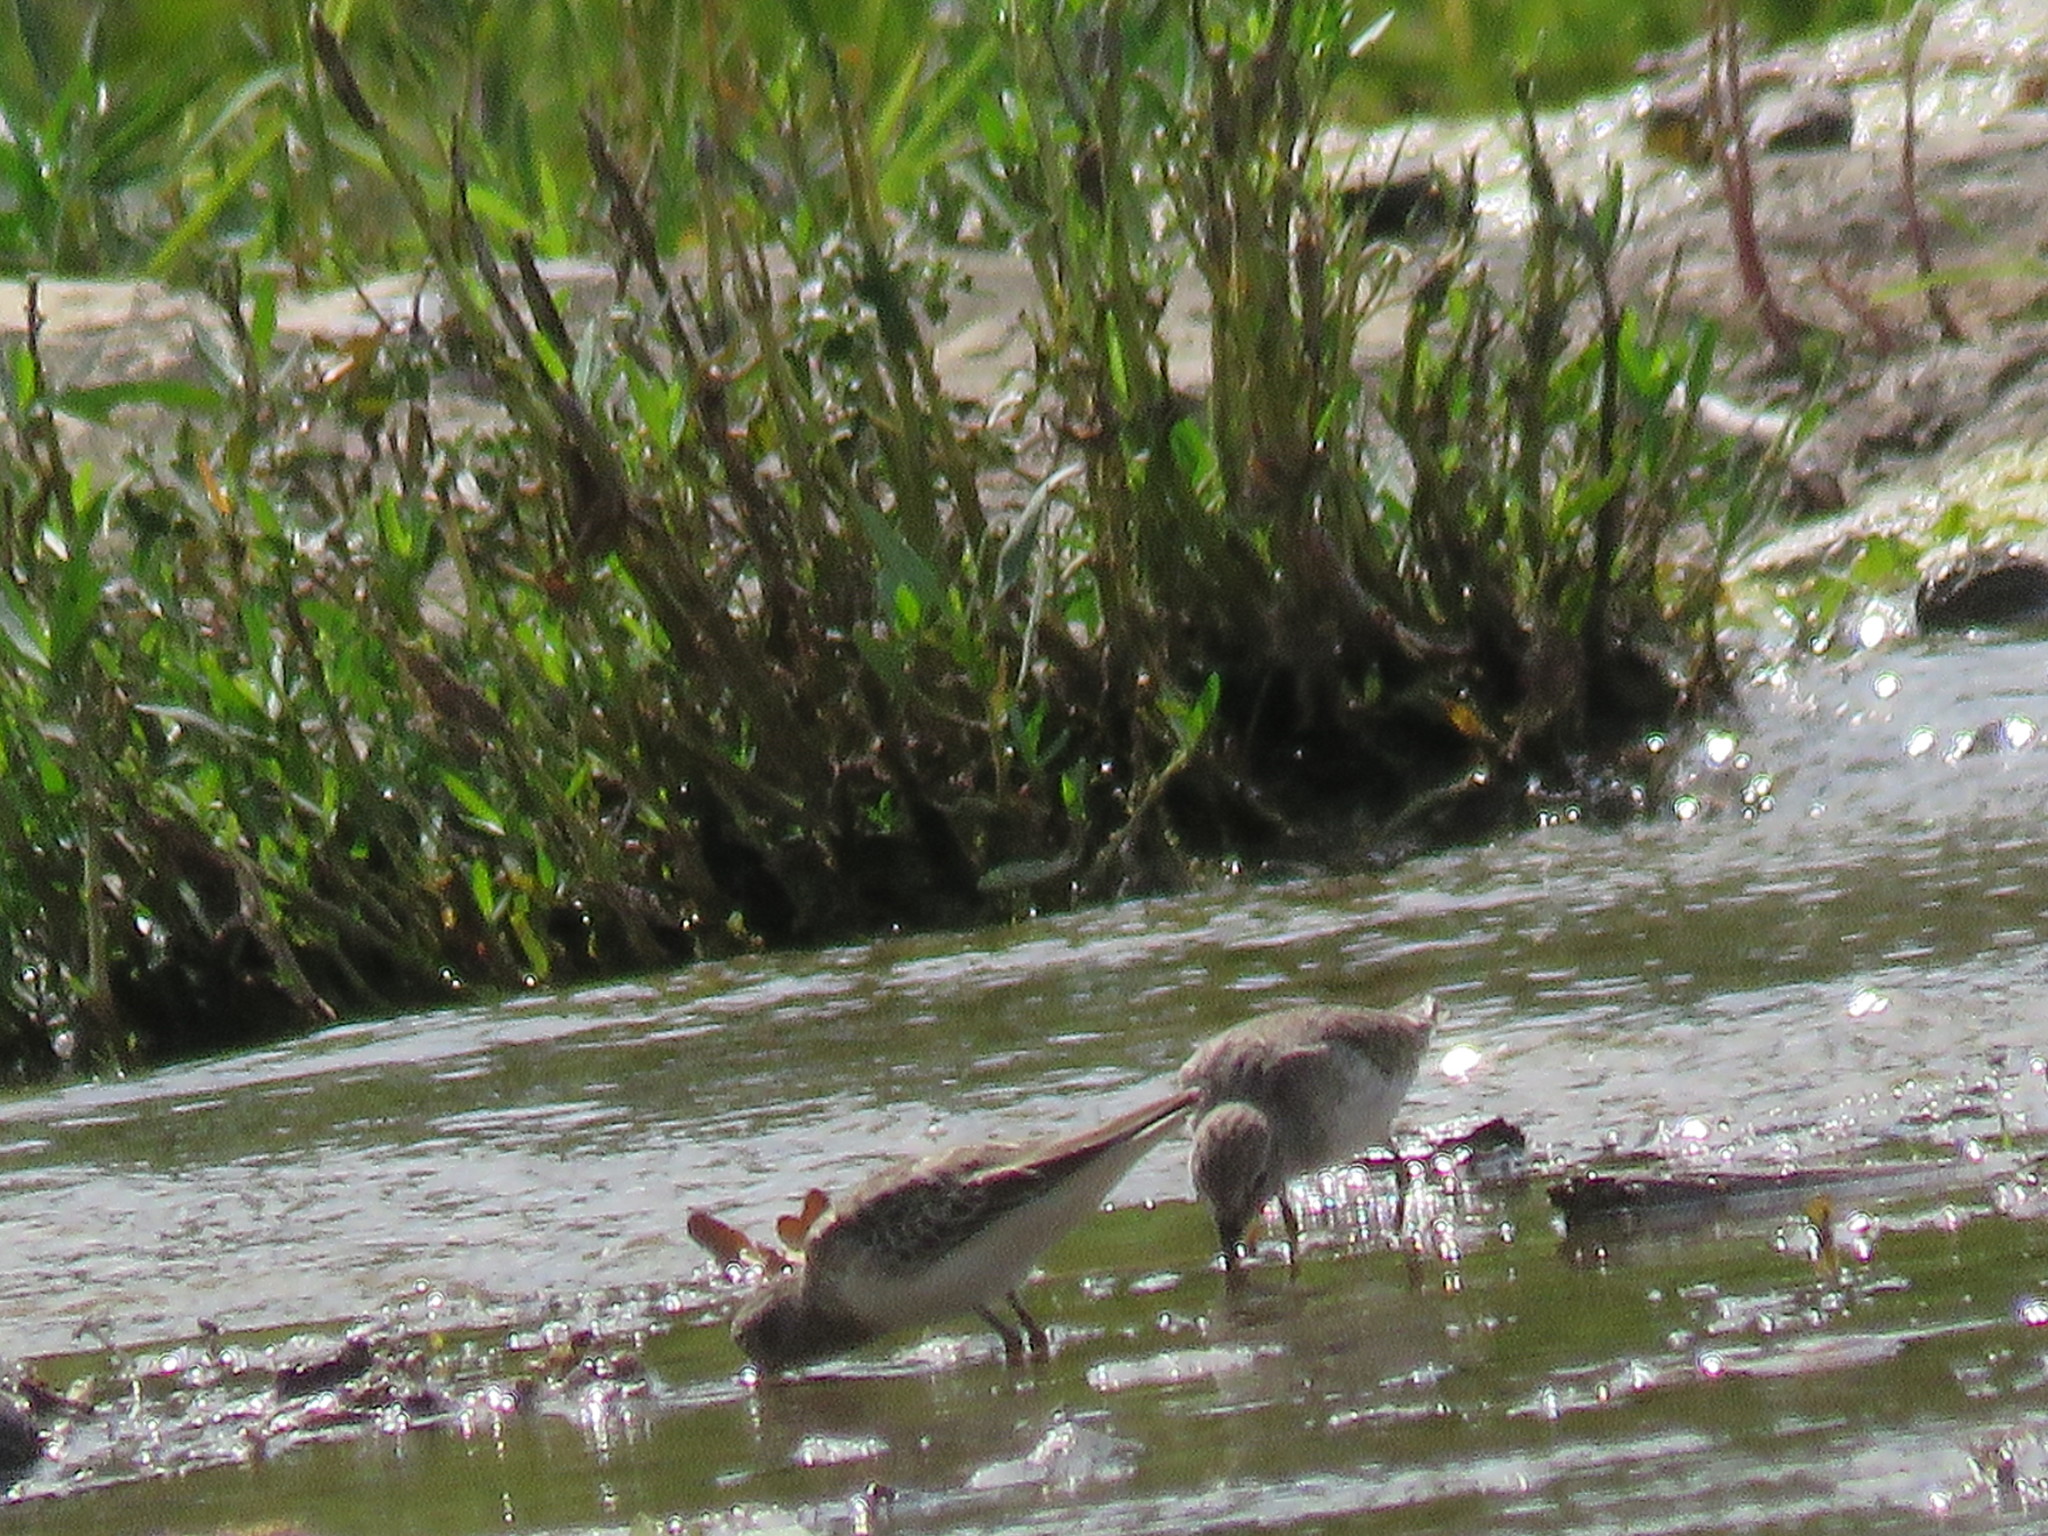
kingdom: Animalia
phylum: Chordata
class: Aves
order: Charadriiformes
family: Scolopacidae
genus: Calidris
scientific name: Calidris minutilla
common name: Least sandpiper
